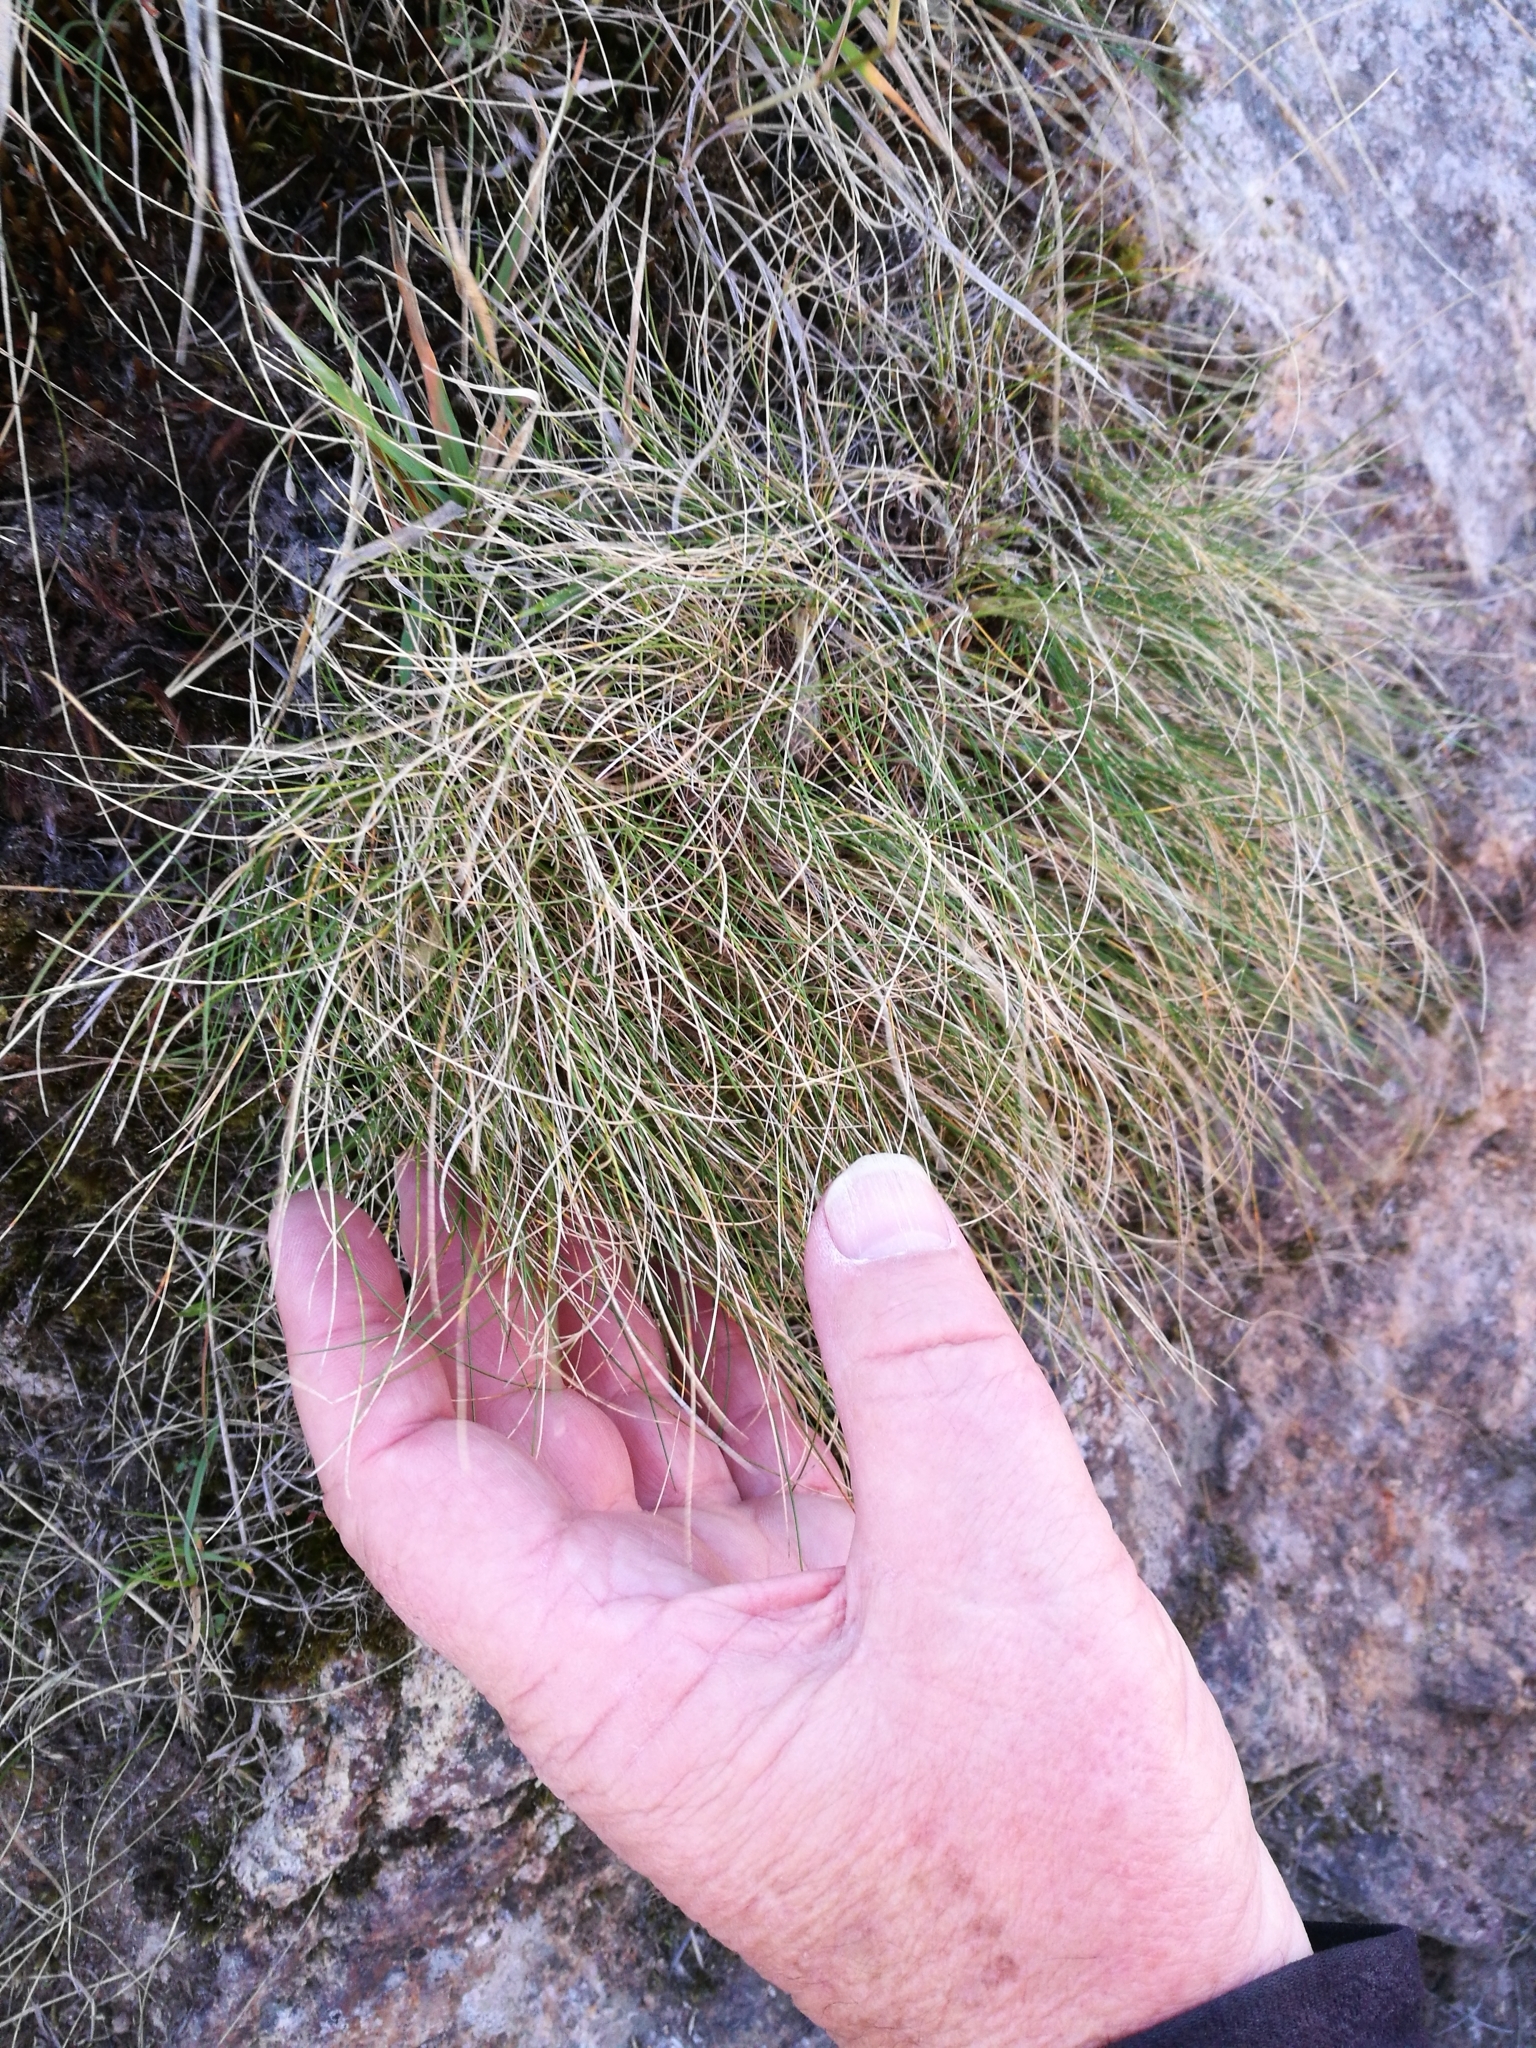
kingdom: Plantae
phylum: Tracheophyta
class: Liliopsida
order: Poales
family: Poaceae
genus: Poa
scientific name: Poa colensoi
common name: Blue tussock
